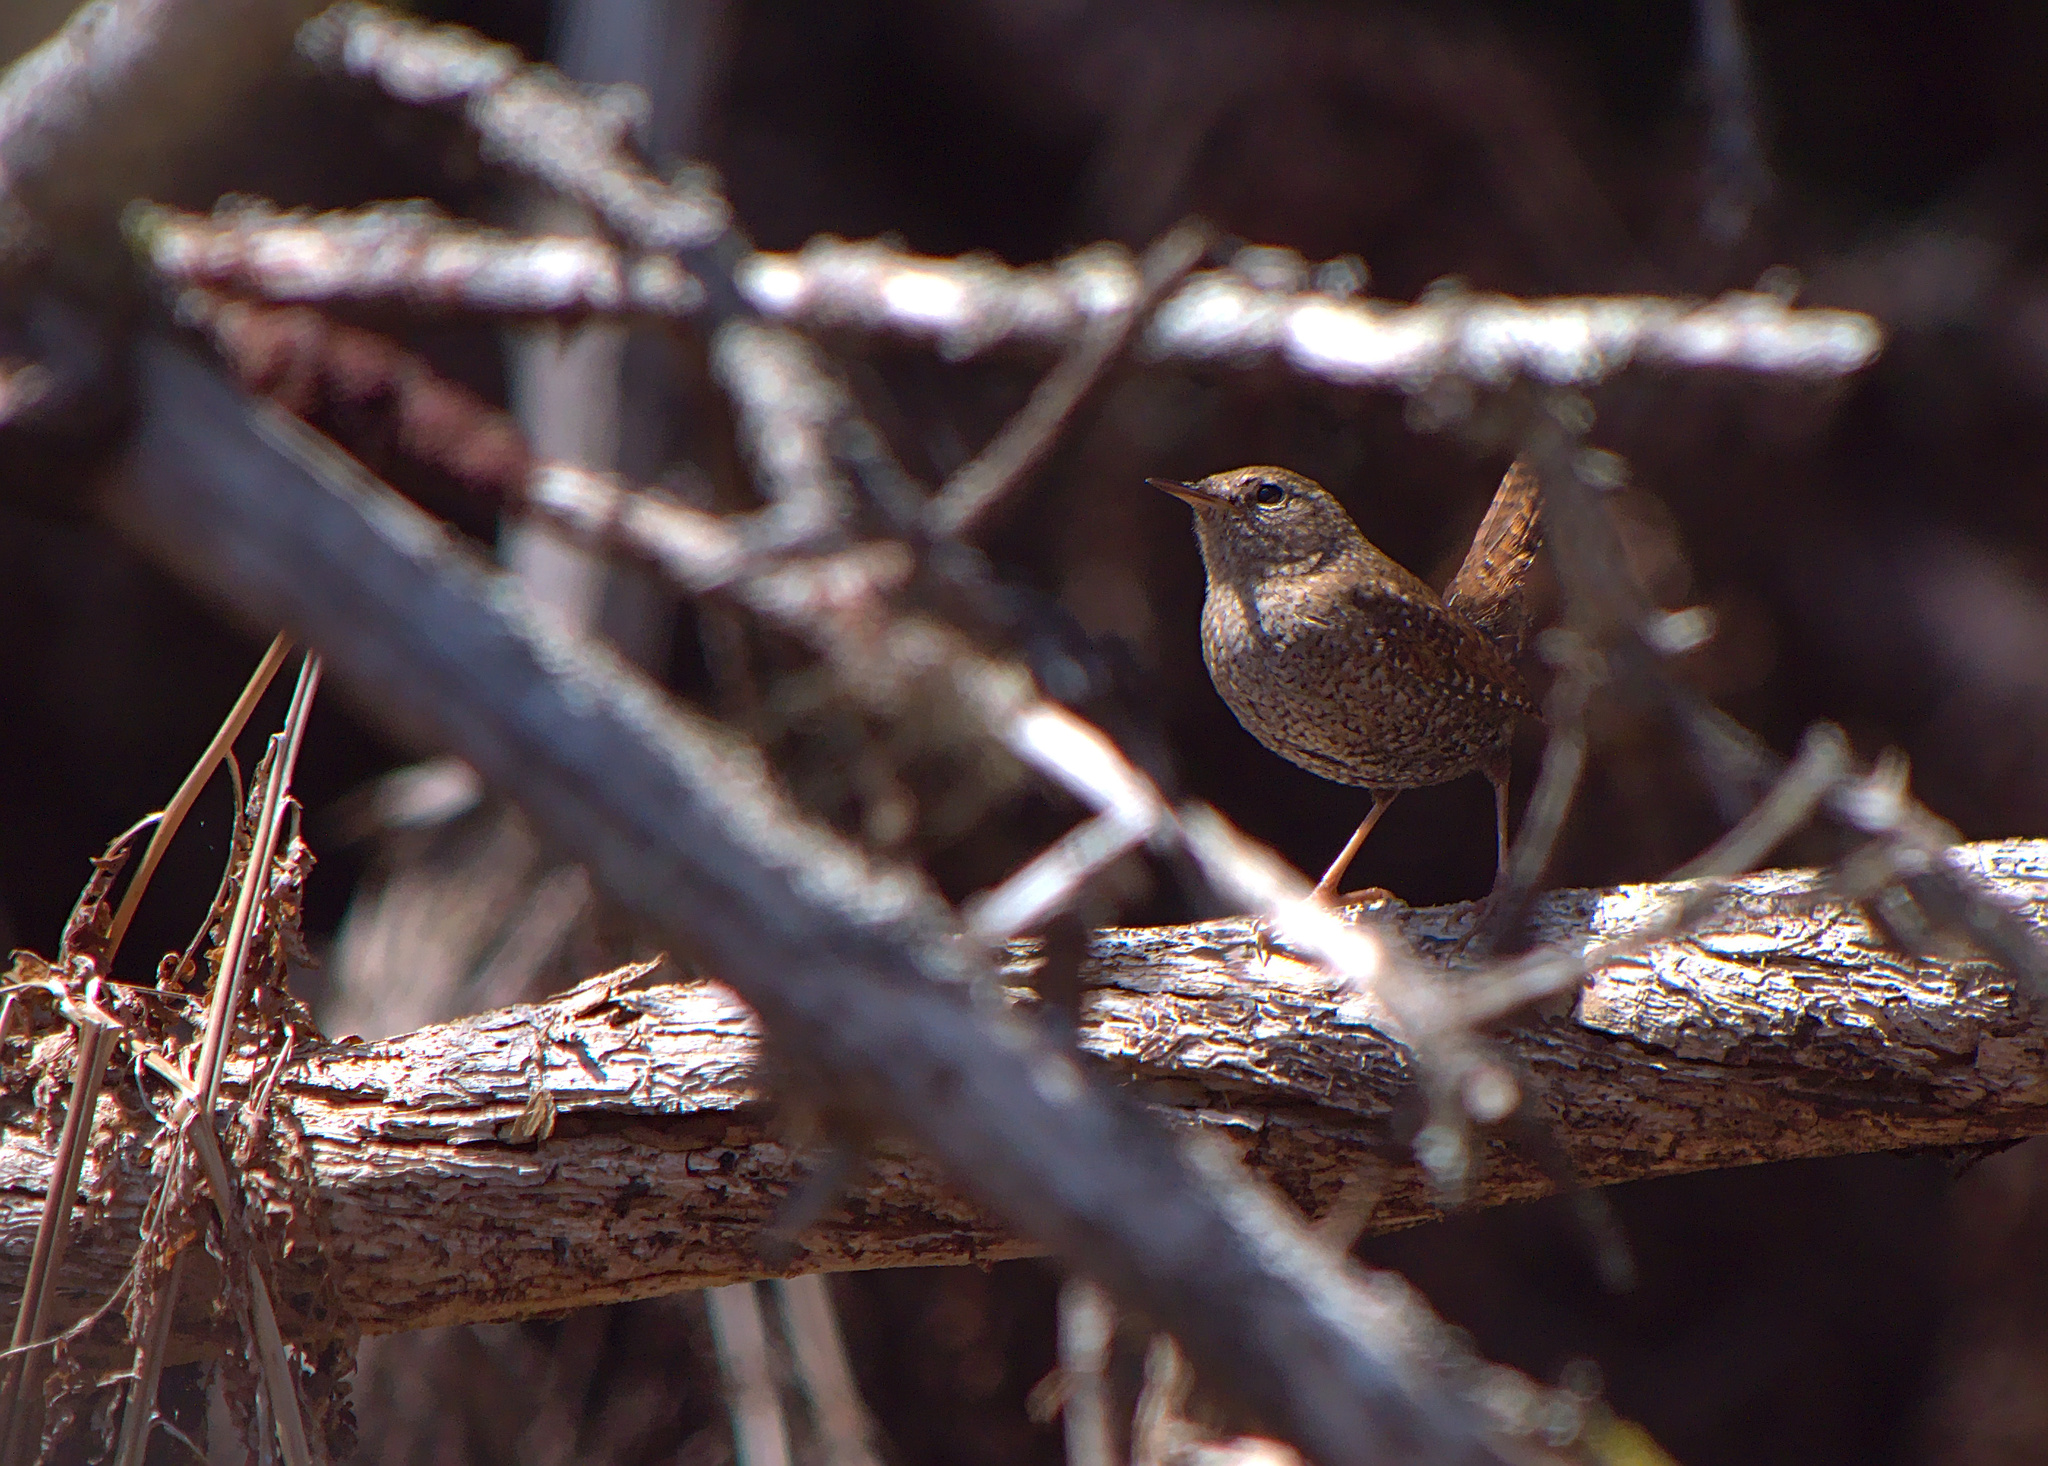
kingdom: Animalia
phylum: Chordata
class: Aves
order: Passeriformes
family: Troglodytidae
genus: Troglodytes
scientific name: Troglodytes hiemalis
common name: Winter wren
